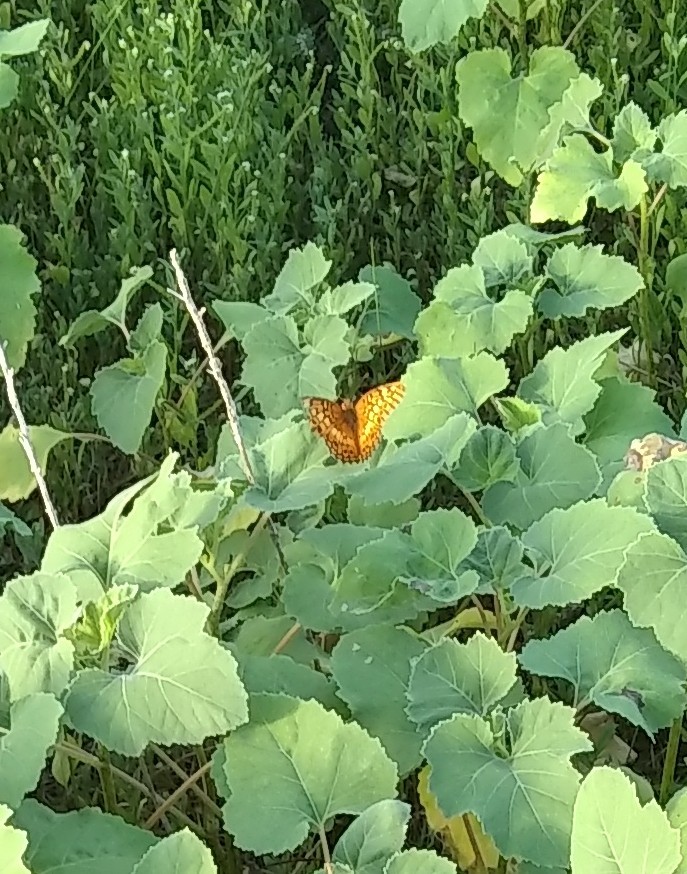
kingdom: Animalia
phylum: Arthropoda
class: Insecta
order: Lepidoptera
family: Nymphalidae
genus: Euptoieta
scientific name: Euptoieta claudia
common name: Variegated fritillary
